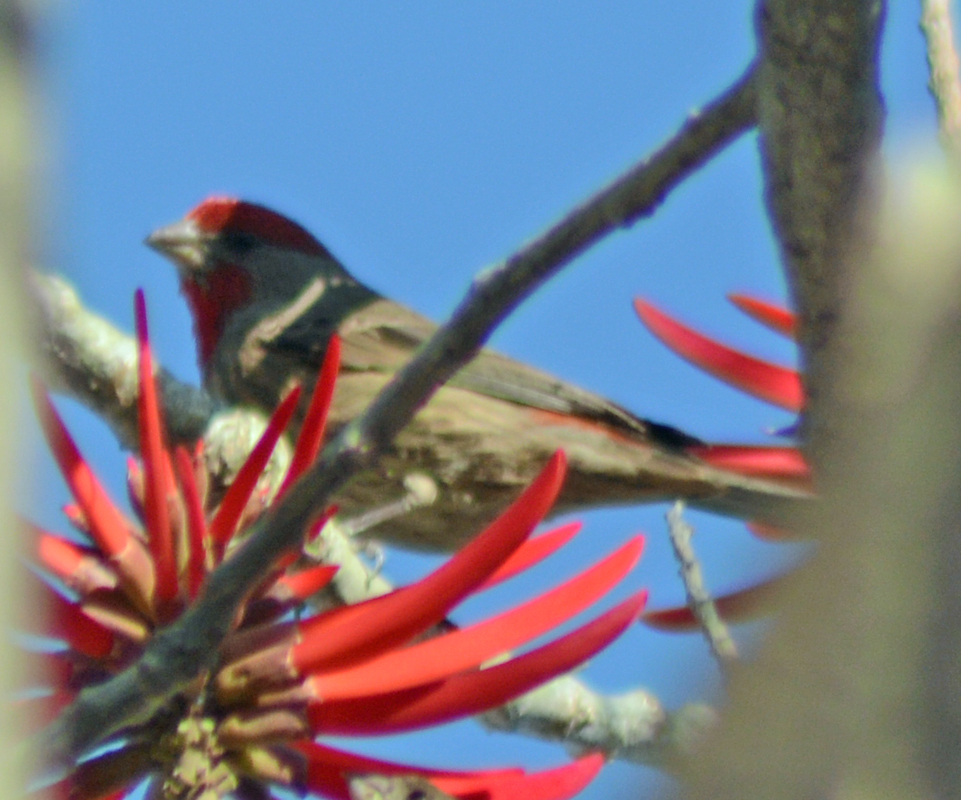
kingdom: Animalia
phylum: Chordata
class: Aves
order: Passeriformes
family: Fringillidae
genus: Haemorhous
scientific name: Haemorhous mexicanus
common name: House finch
